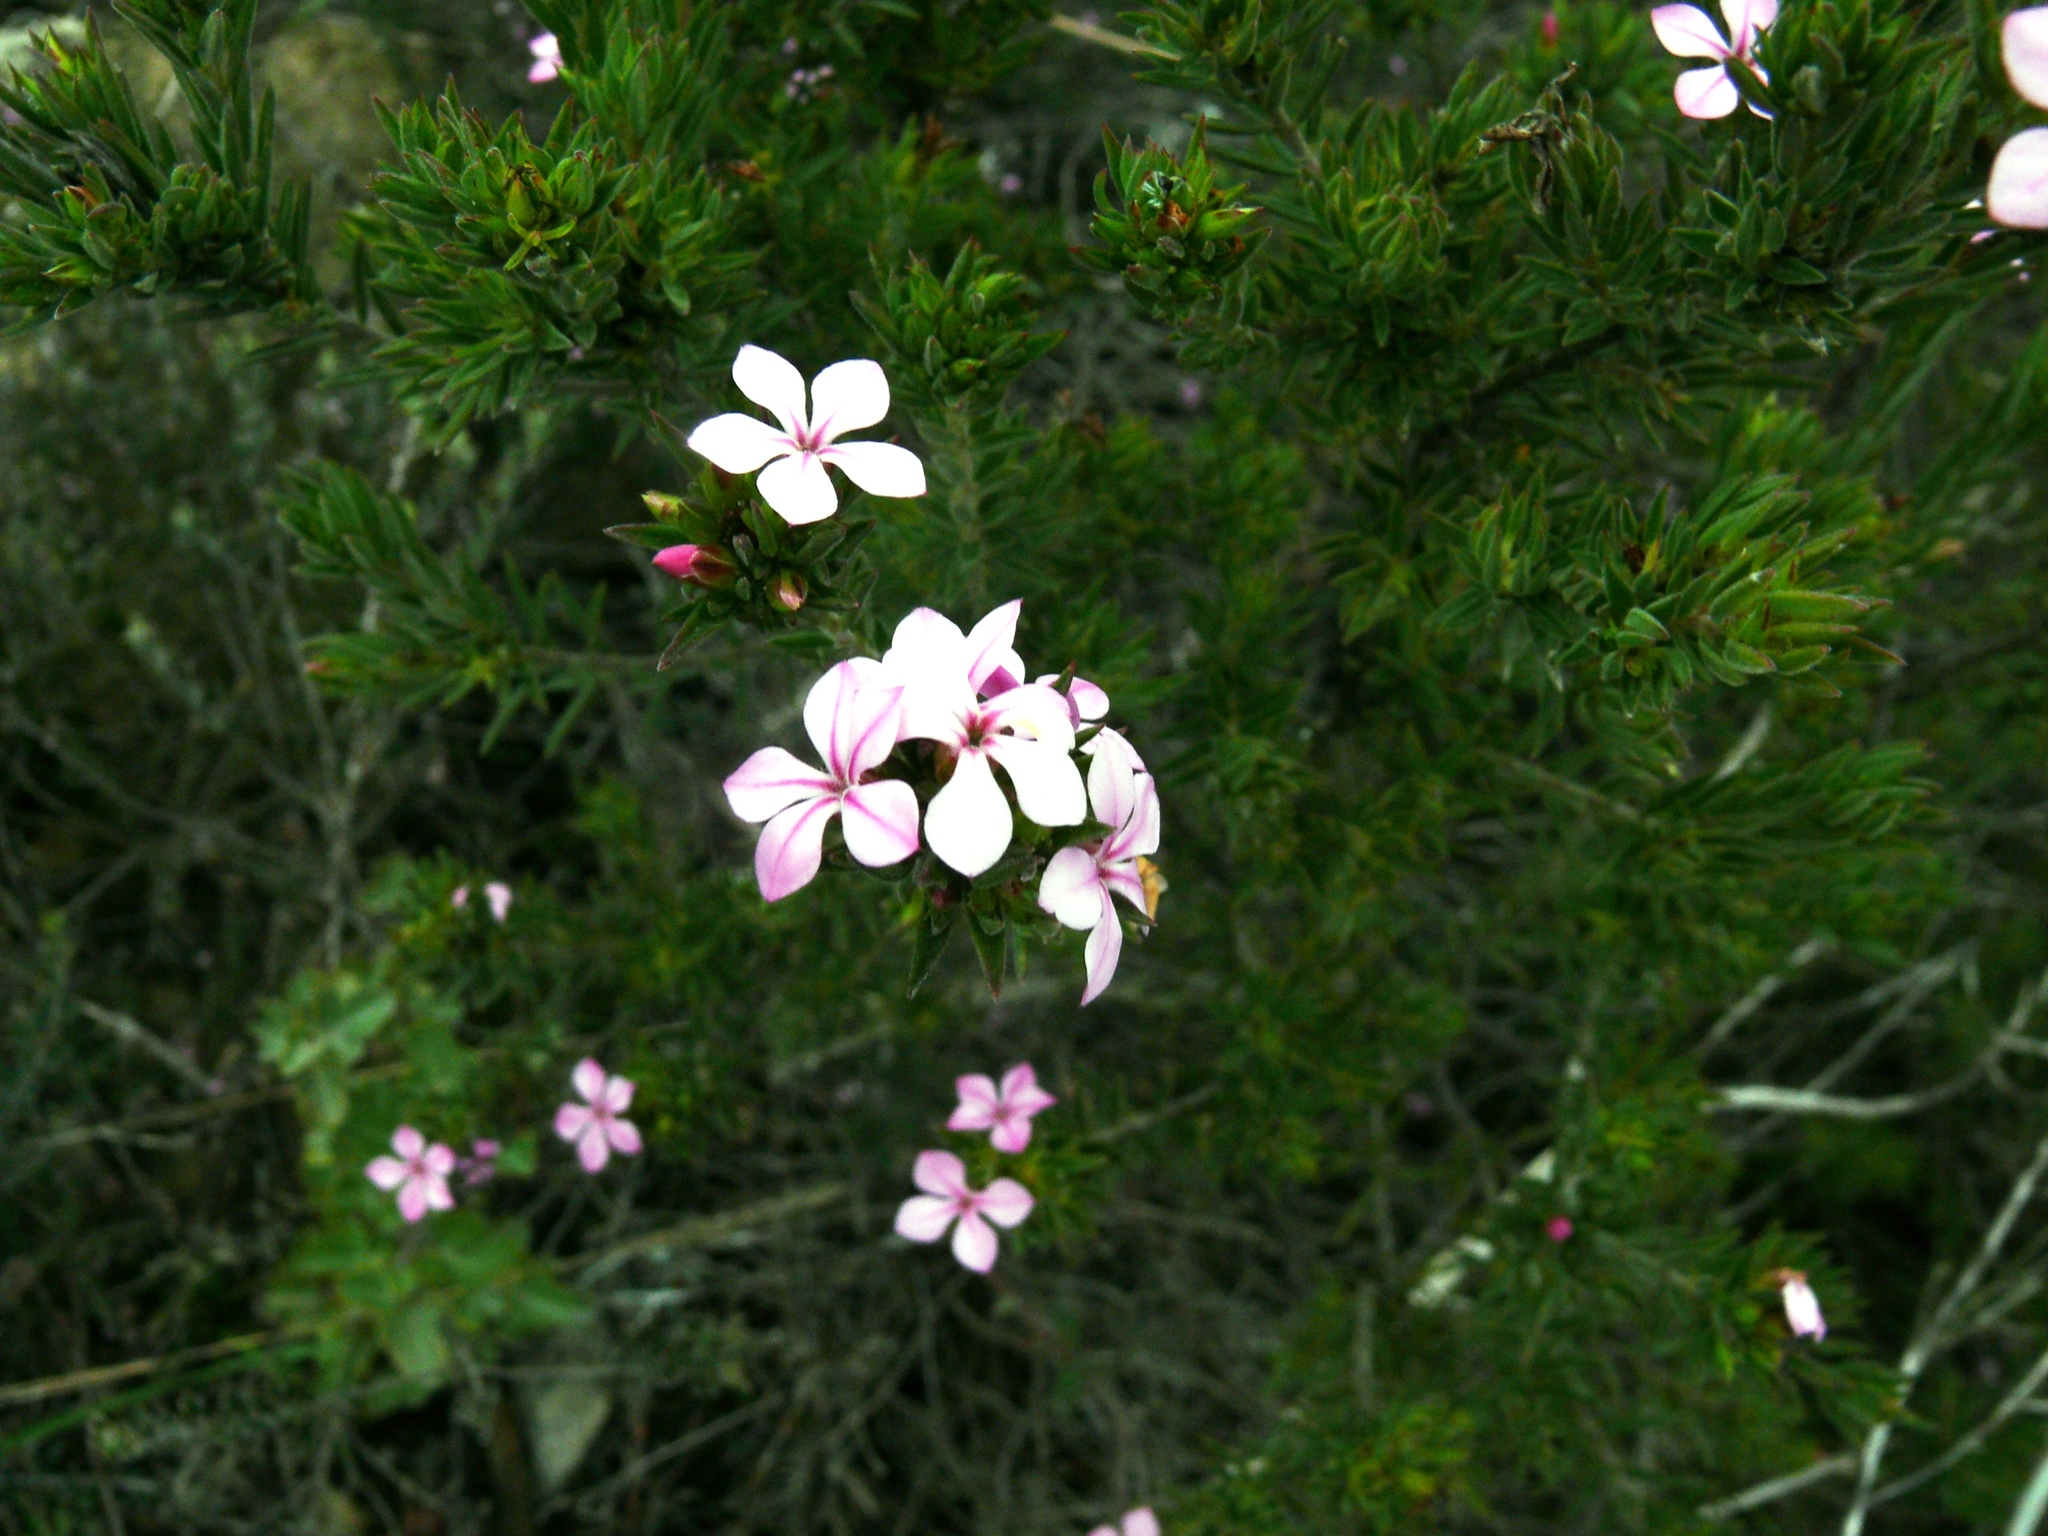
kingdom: Plantae
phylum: Tracheophyta
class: Magnoliopsida
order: Sapindales
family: Rutaceae
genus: Acmadenia
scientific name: Acmadenia obtusata
